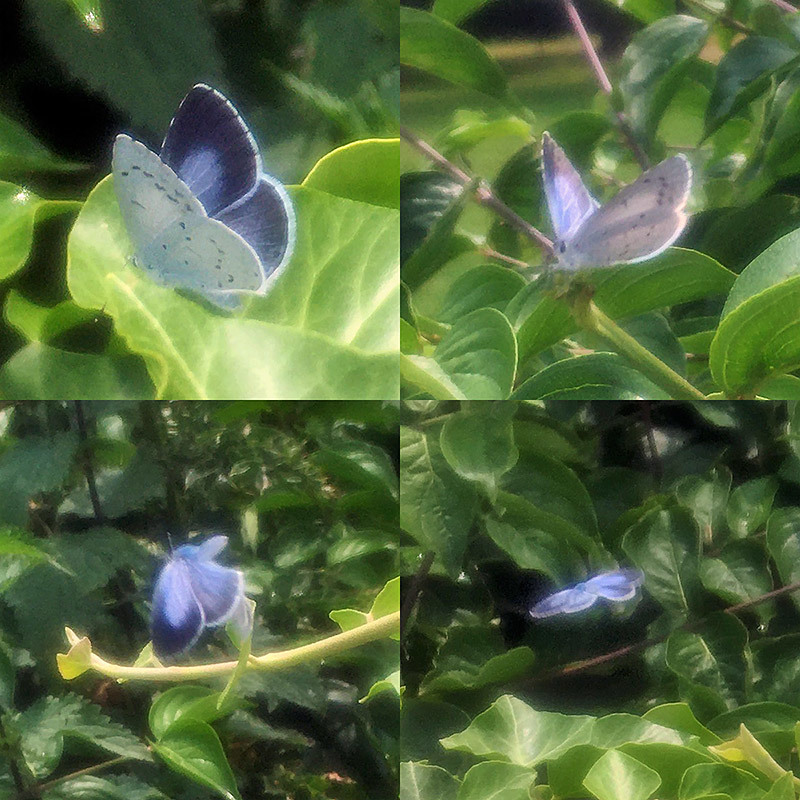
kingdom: Animalia
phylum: Arthropoda
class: Insecta
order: Lepidoptera
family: Lycaenidae
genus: Celastrina
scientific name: Celastrina argiolus
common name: Holly blue
